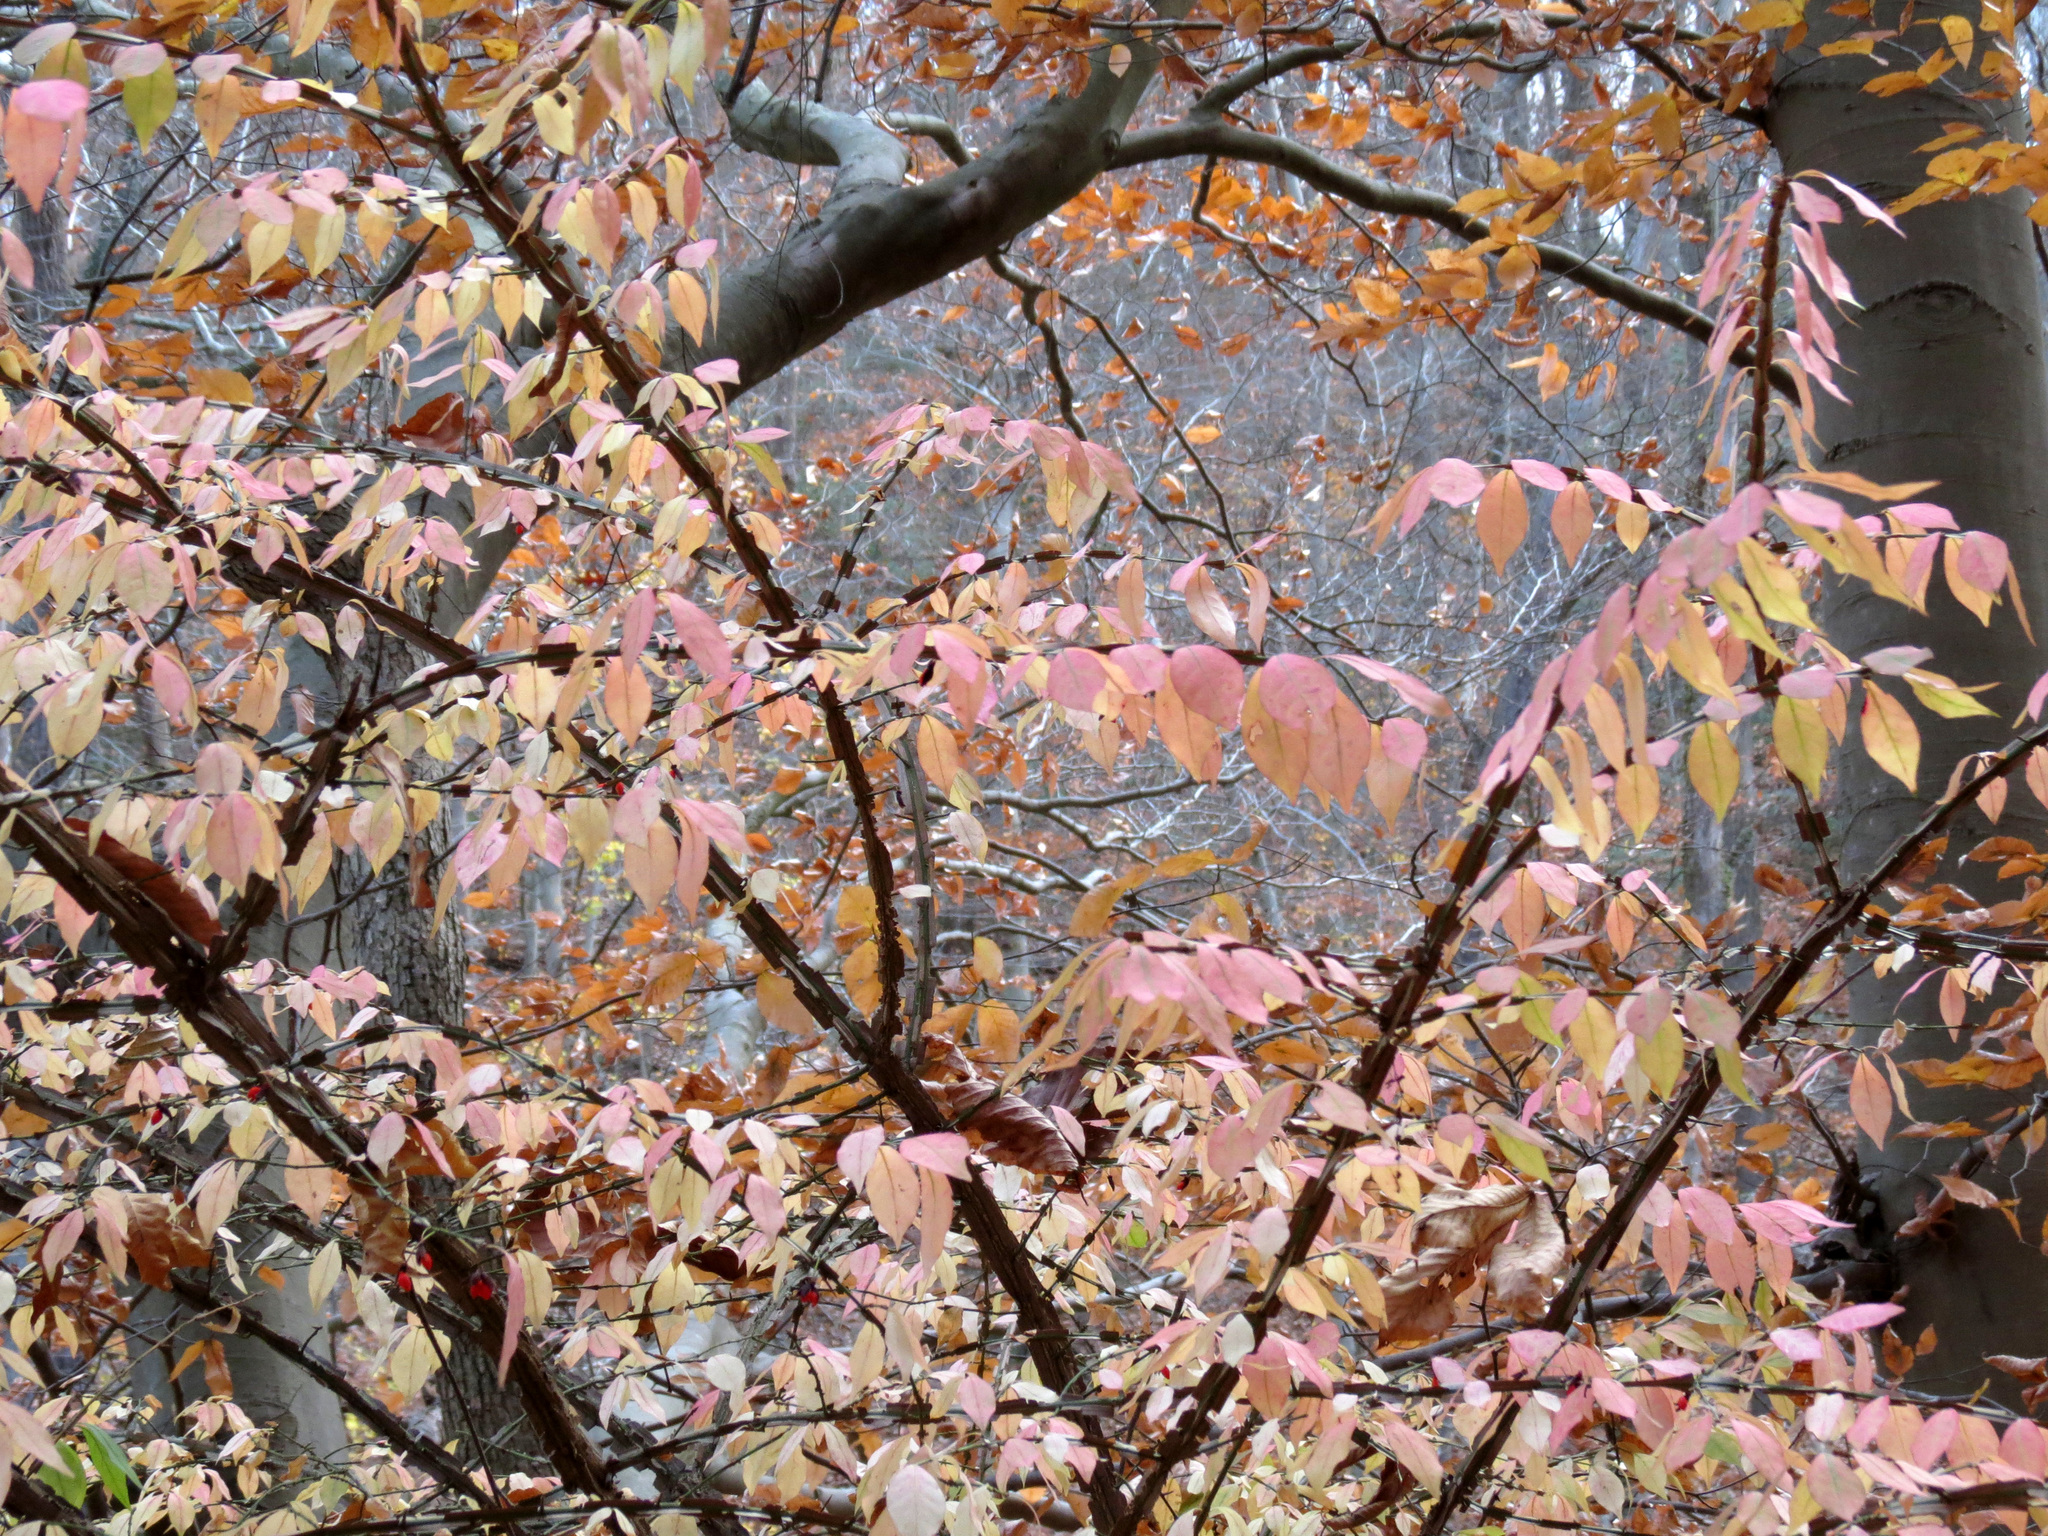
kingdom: Plantae
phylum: Tracheophyta
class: Magnoliopsida
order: Celastrales
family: Celastraceae
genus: Euonymus
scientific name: Euonymus alatus
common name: Winged euonymus
